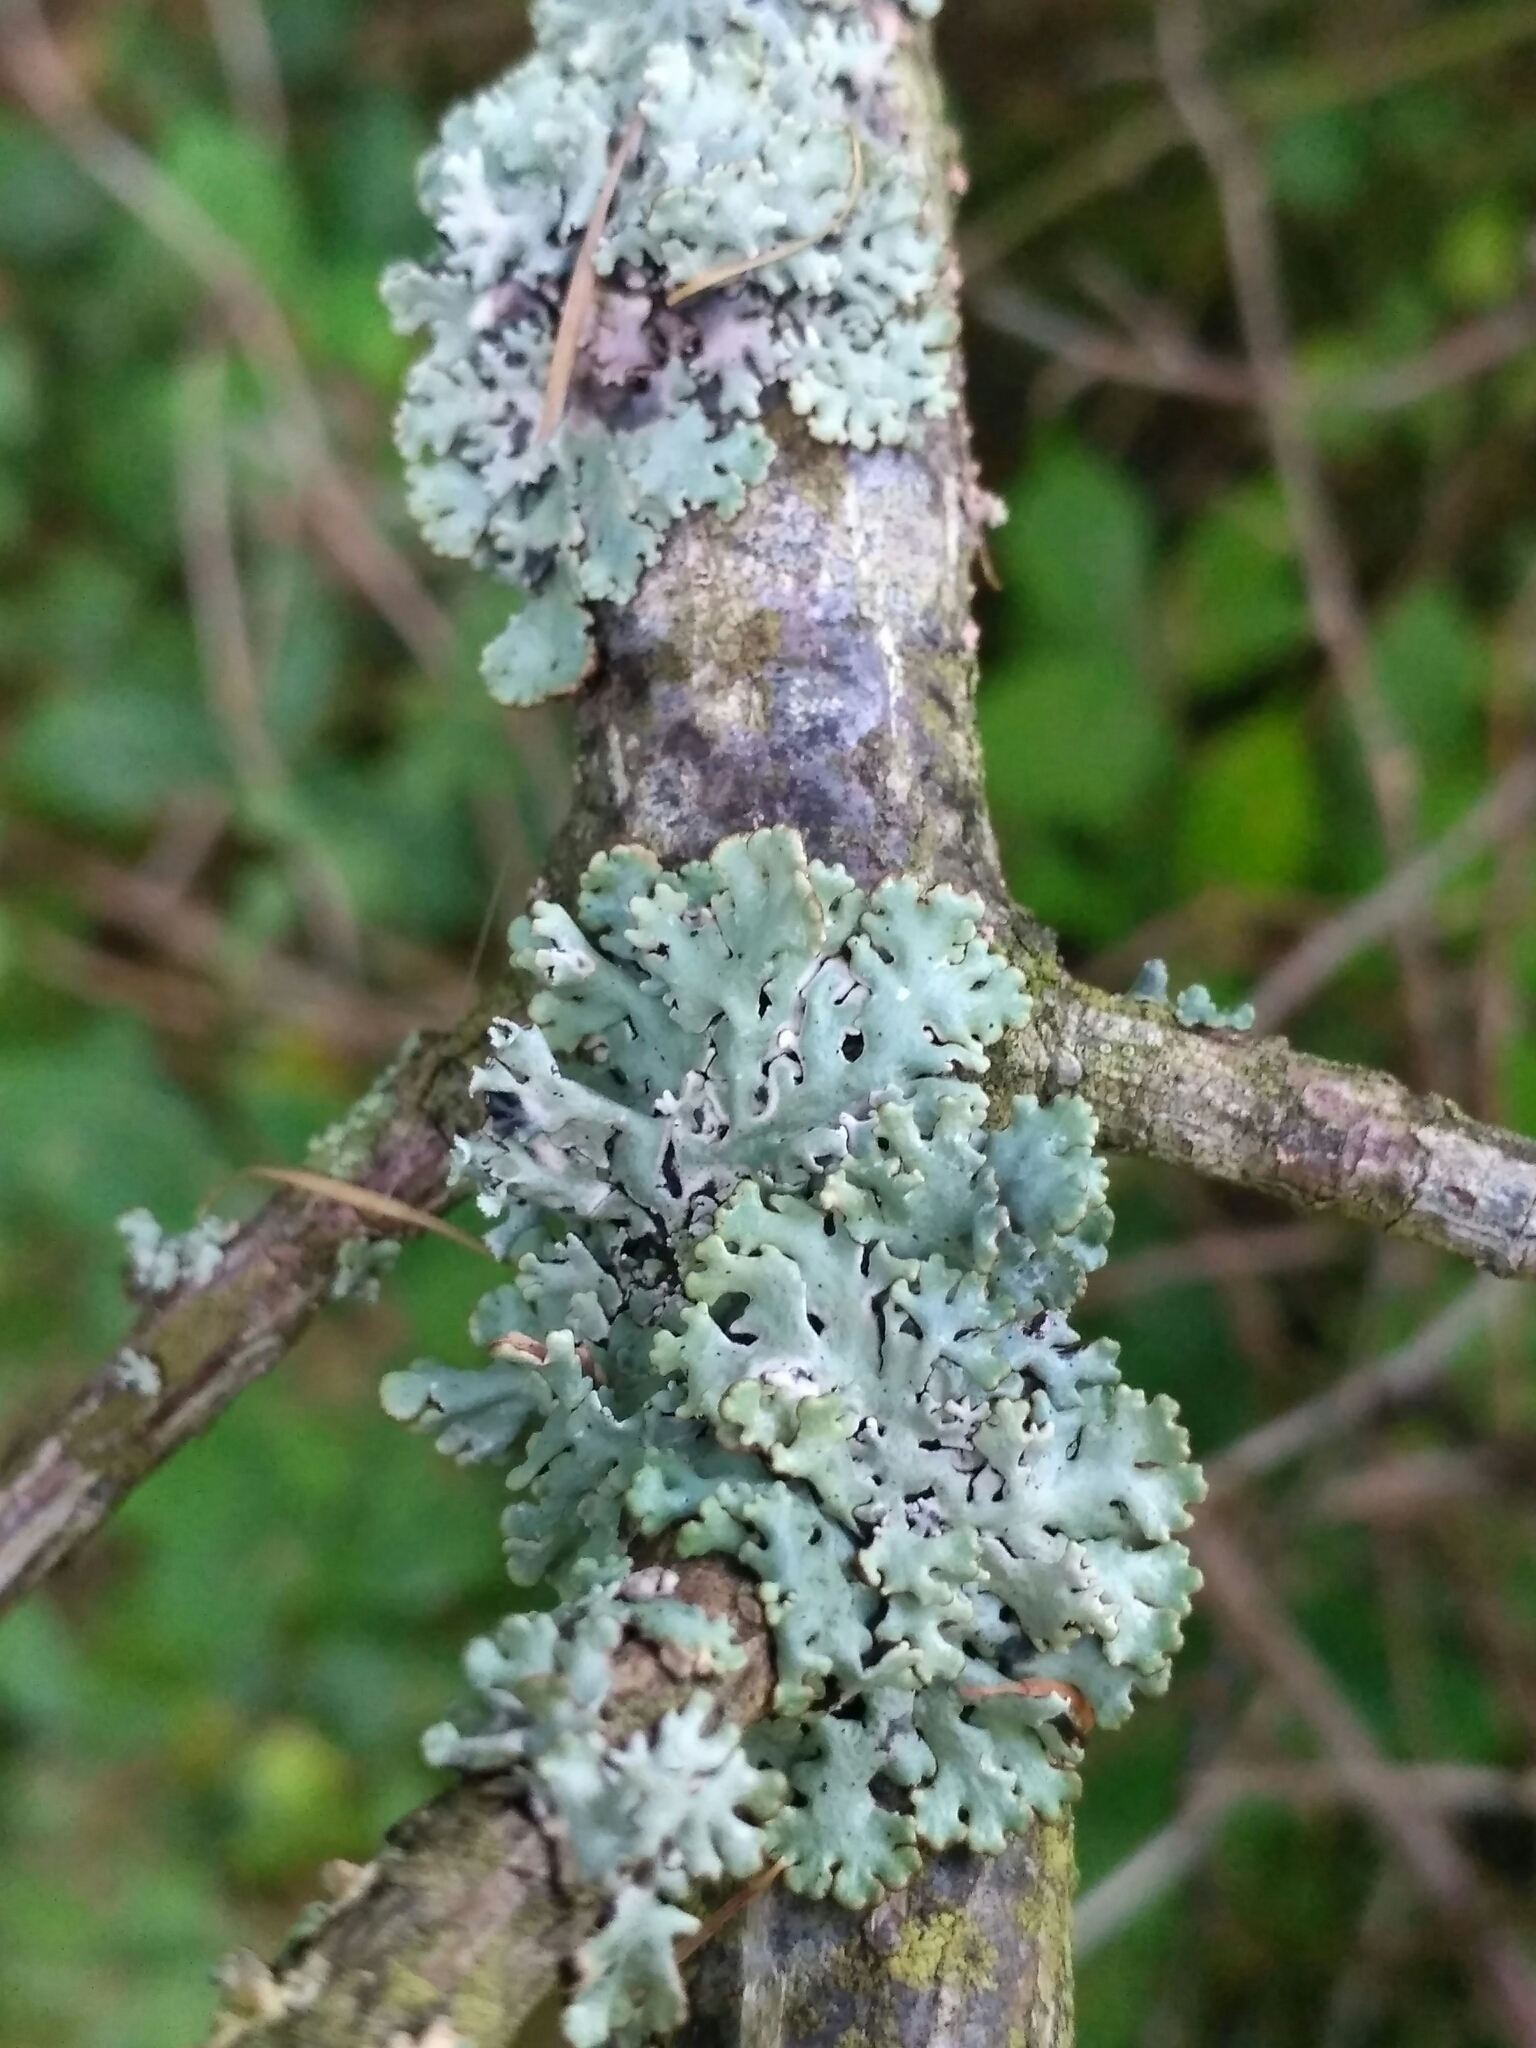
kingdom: Fungi
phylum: Ascomycota
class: Lecanoromycetes
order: Lecanorales
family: Parmeliaceae
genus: Hypogymnia
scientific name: Hypogymnia physodes
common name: Dark crottle
